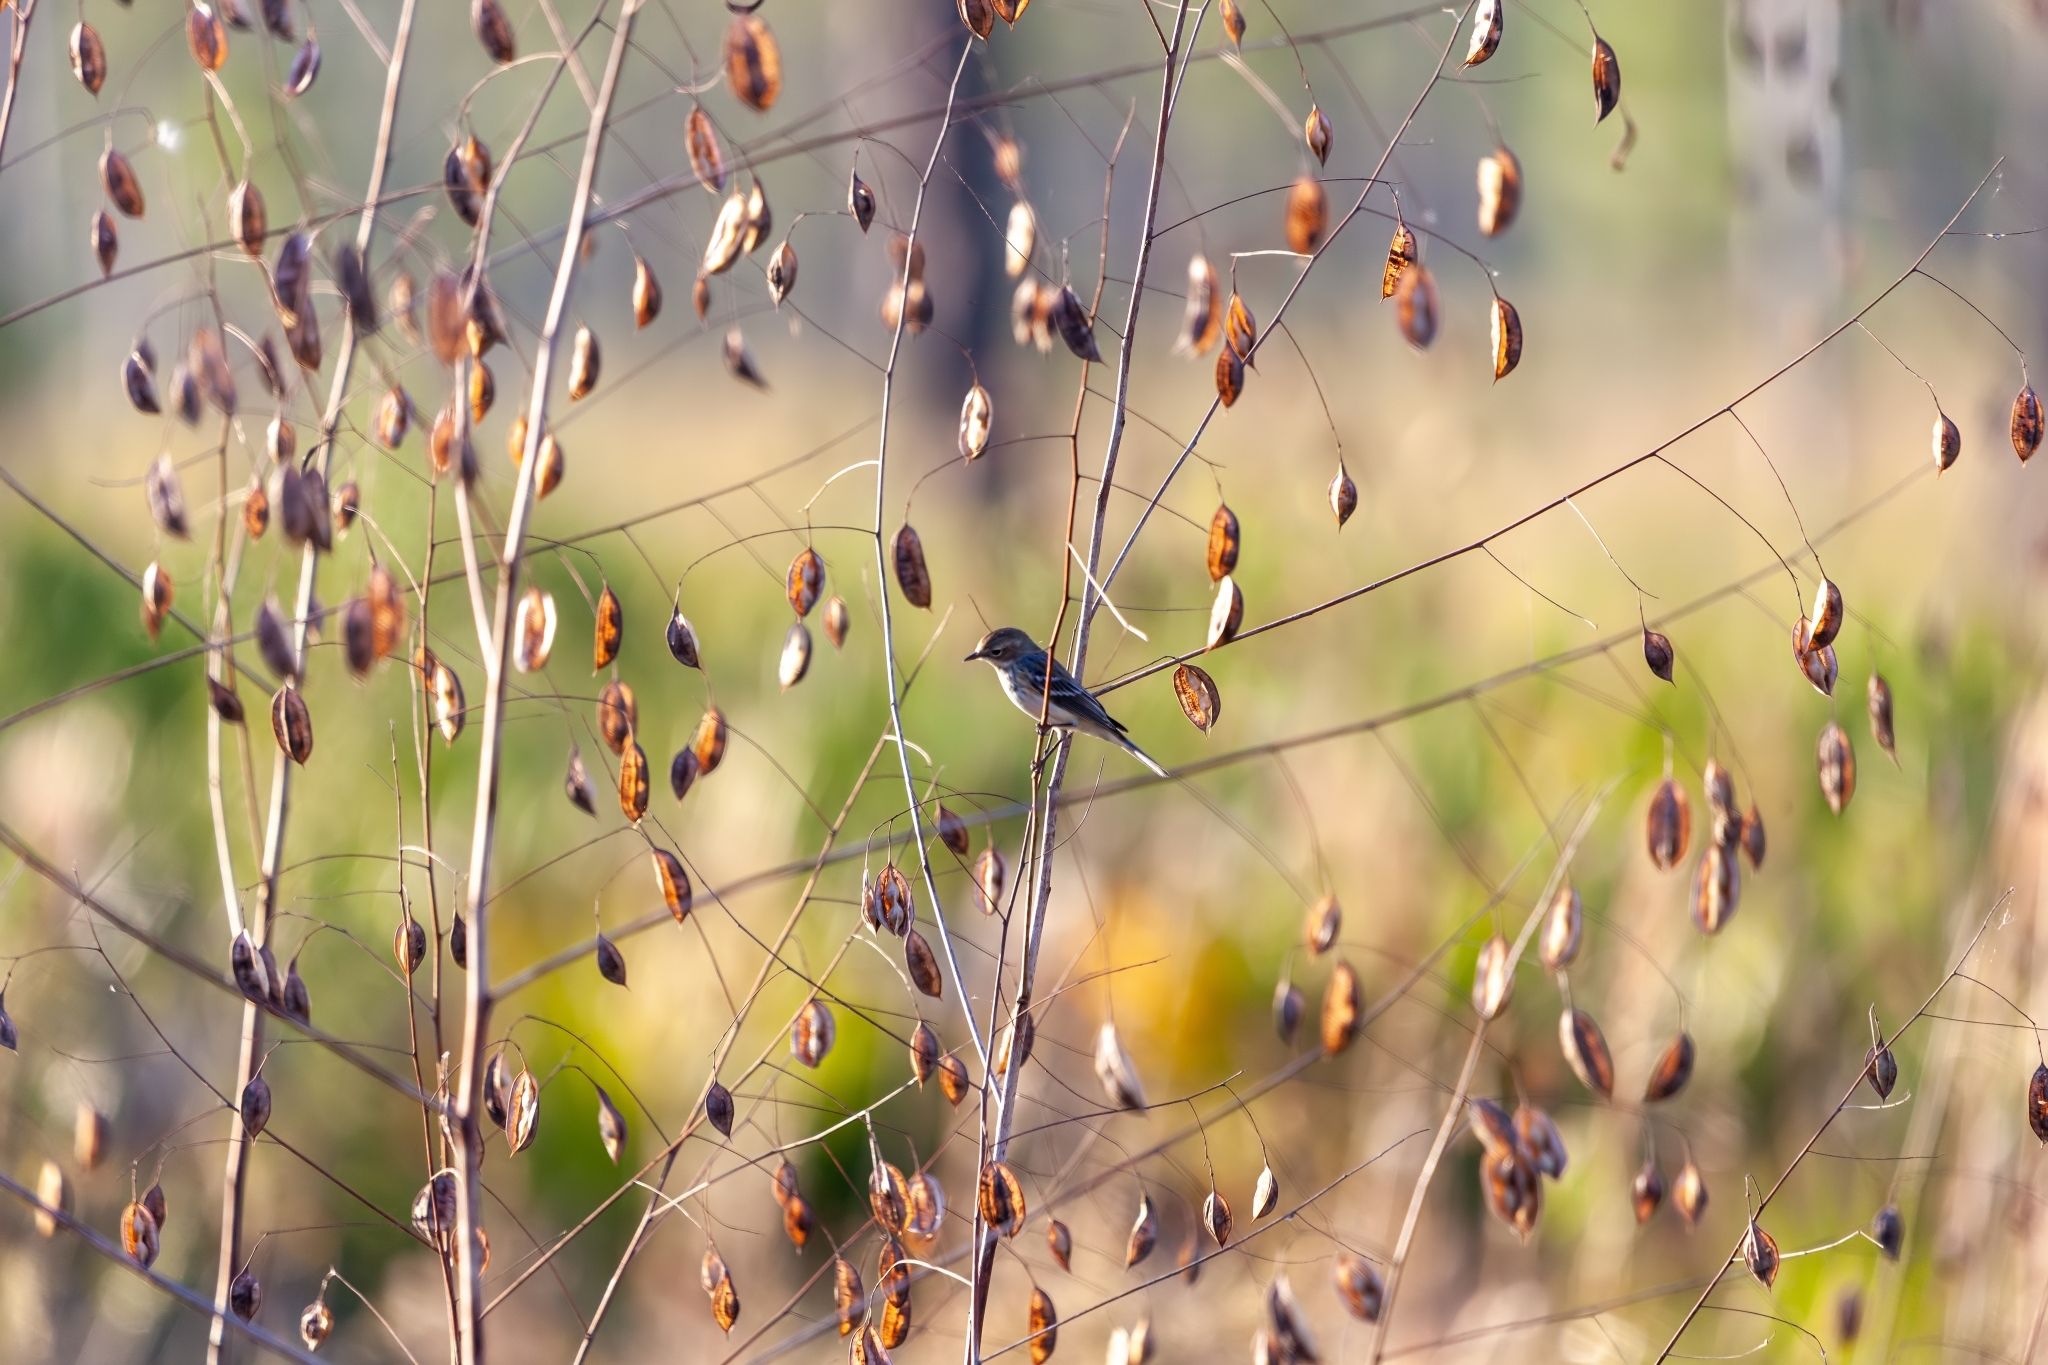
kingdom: Animalia
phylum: Chordata
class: Aves
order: Passeriformes
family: Parulidae
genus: Setophaga
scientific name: Setophaga coronata
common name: Myrtle warbler
